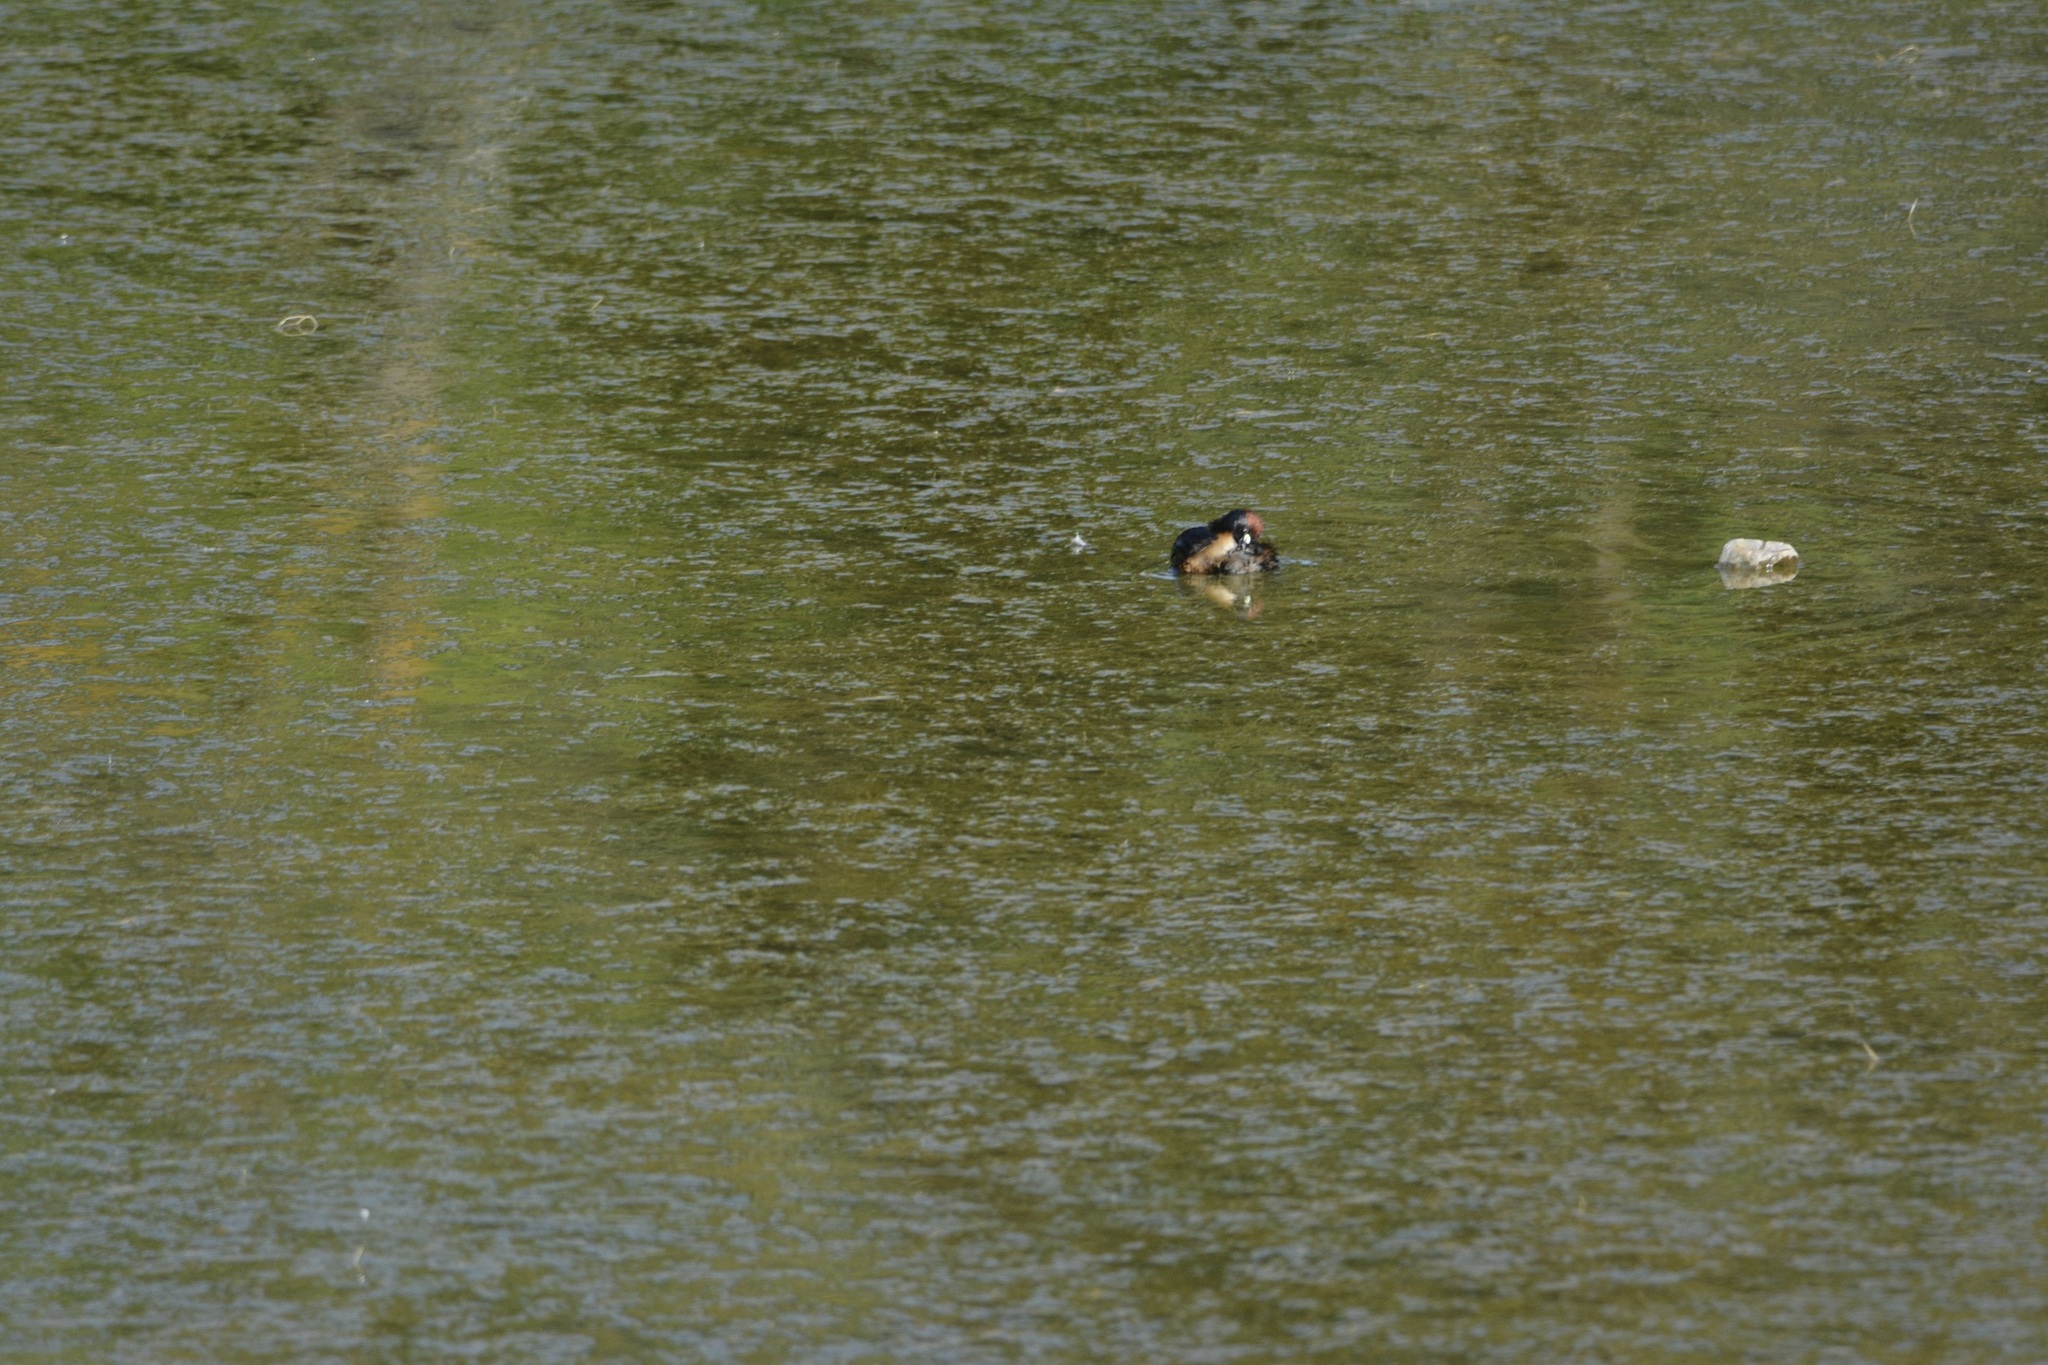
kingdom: Animalia
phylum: Chordata
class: Aves
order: Podicipediformes
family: Podicipedidae
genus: Tachybaptus
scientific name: Tachybaptus ruficollis
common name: Little grebe
